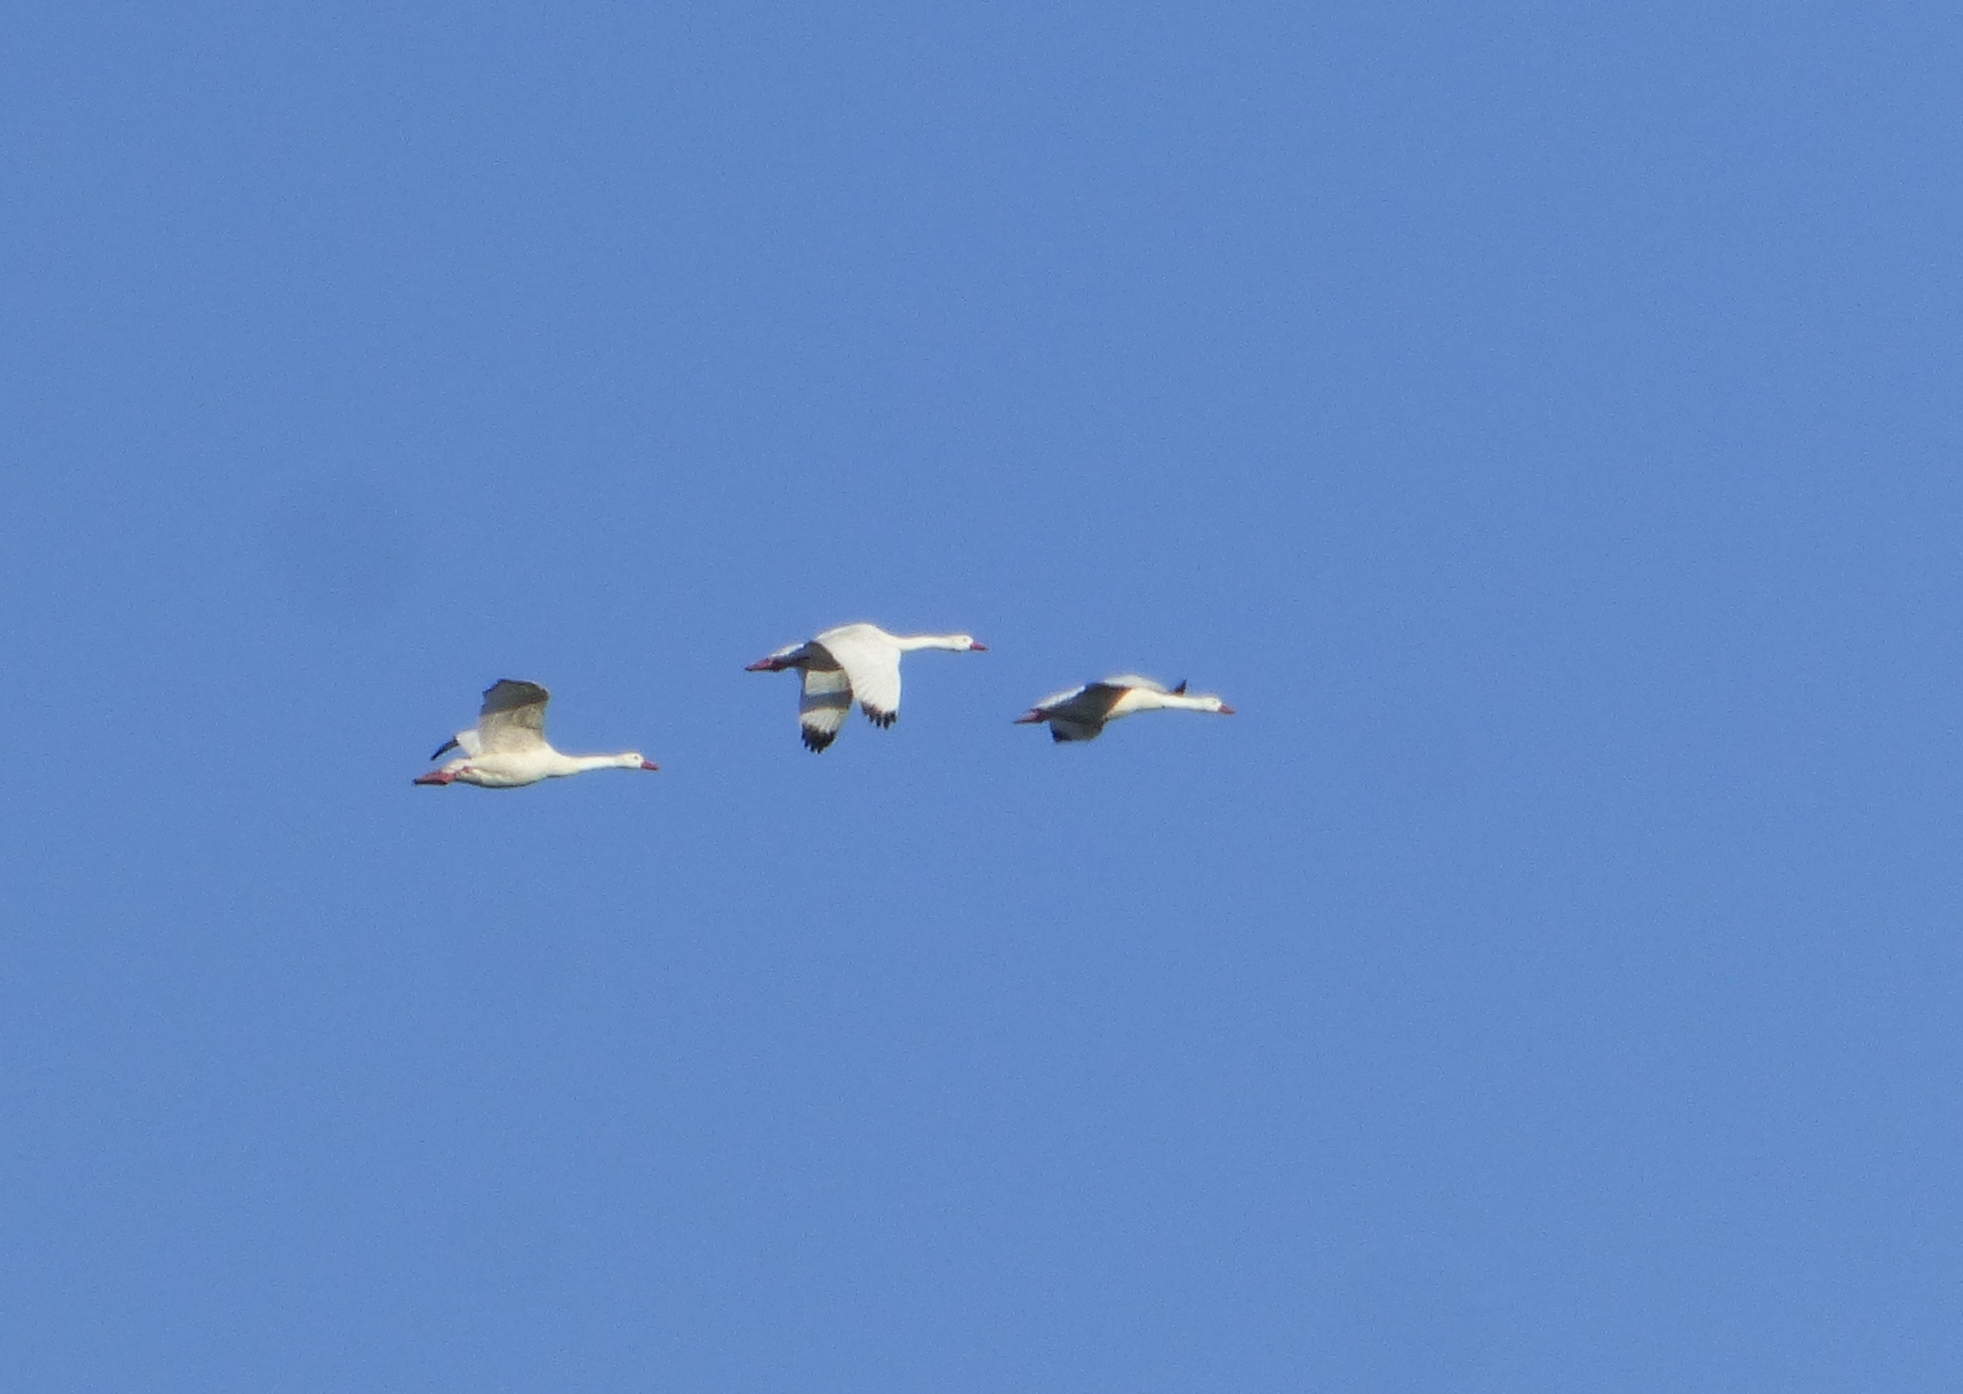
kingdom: Animalia
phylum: Chordata
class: Aves
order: Anseriformes
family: Anatidae
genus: Coscoroba
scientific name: Coscoroba coscoroba
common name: Coscoroba swan
